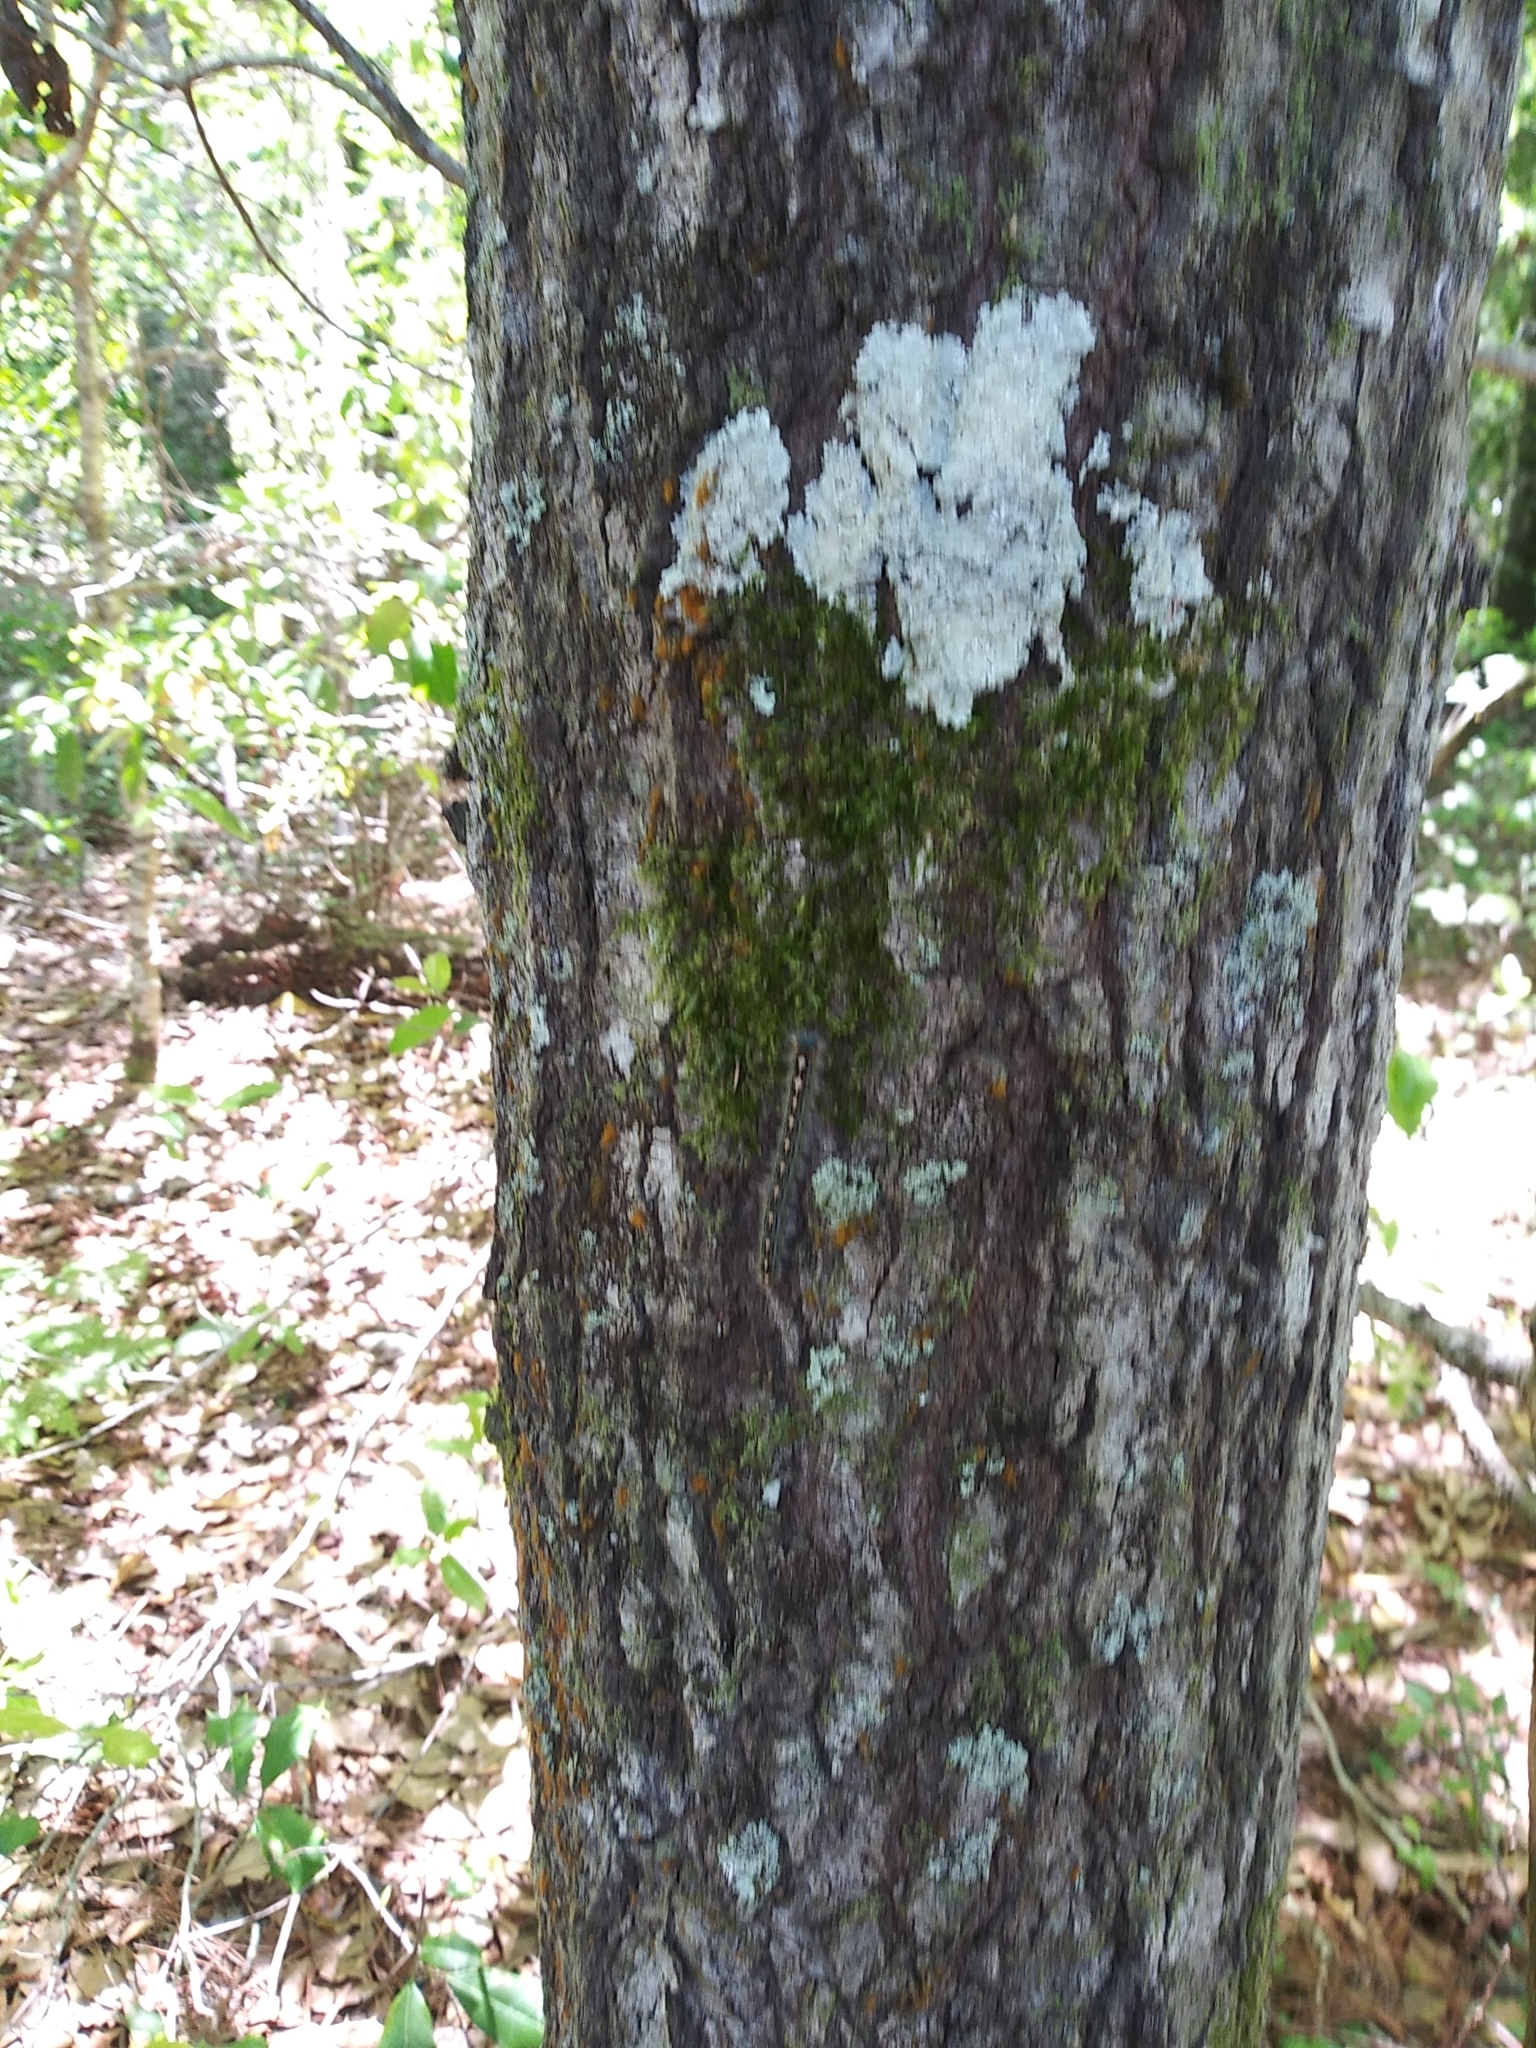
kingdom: Animalia
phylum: Arthropoda
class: Insecta
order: Lepidoptera
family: Lasiocampidae
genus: Malacosoma
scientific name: Malacosoma disstria
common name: Forest tent caterpillar
